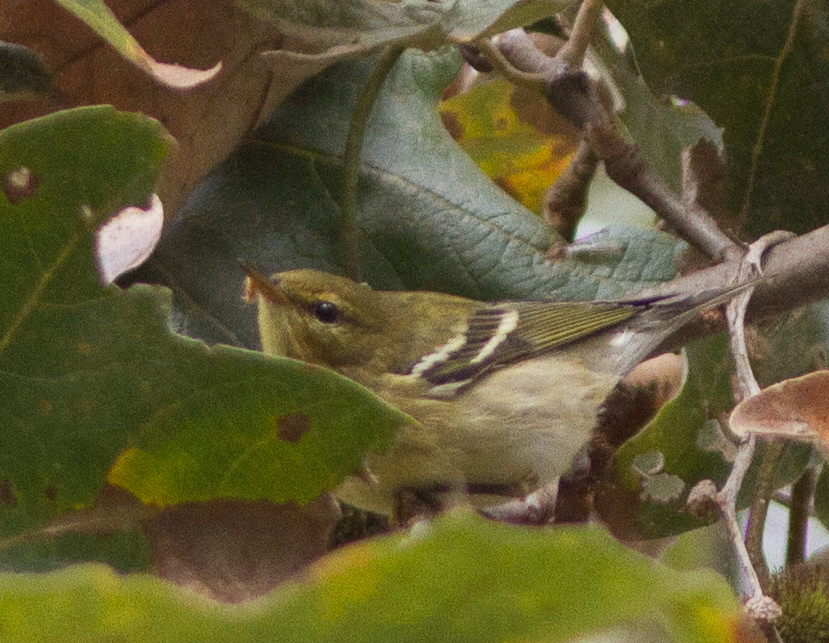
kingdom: Animalia
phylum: Chordata
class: Aves
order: Passeriformes
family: Parulidae
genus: Setophaga
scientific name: Setophaga striata
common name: Blackpoll warbler
